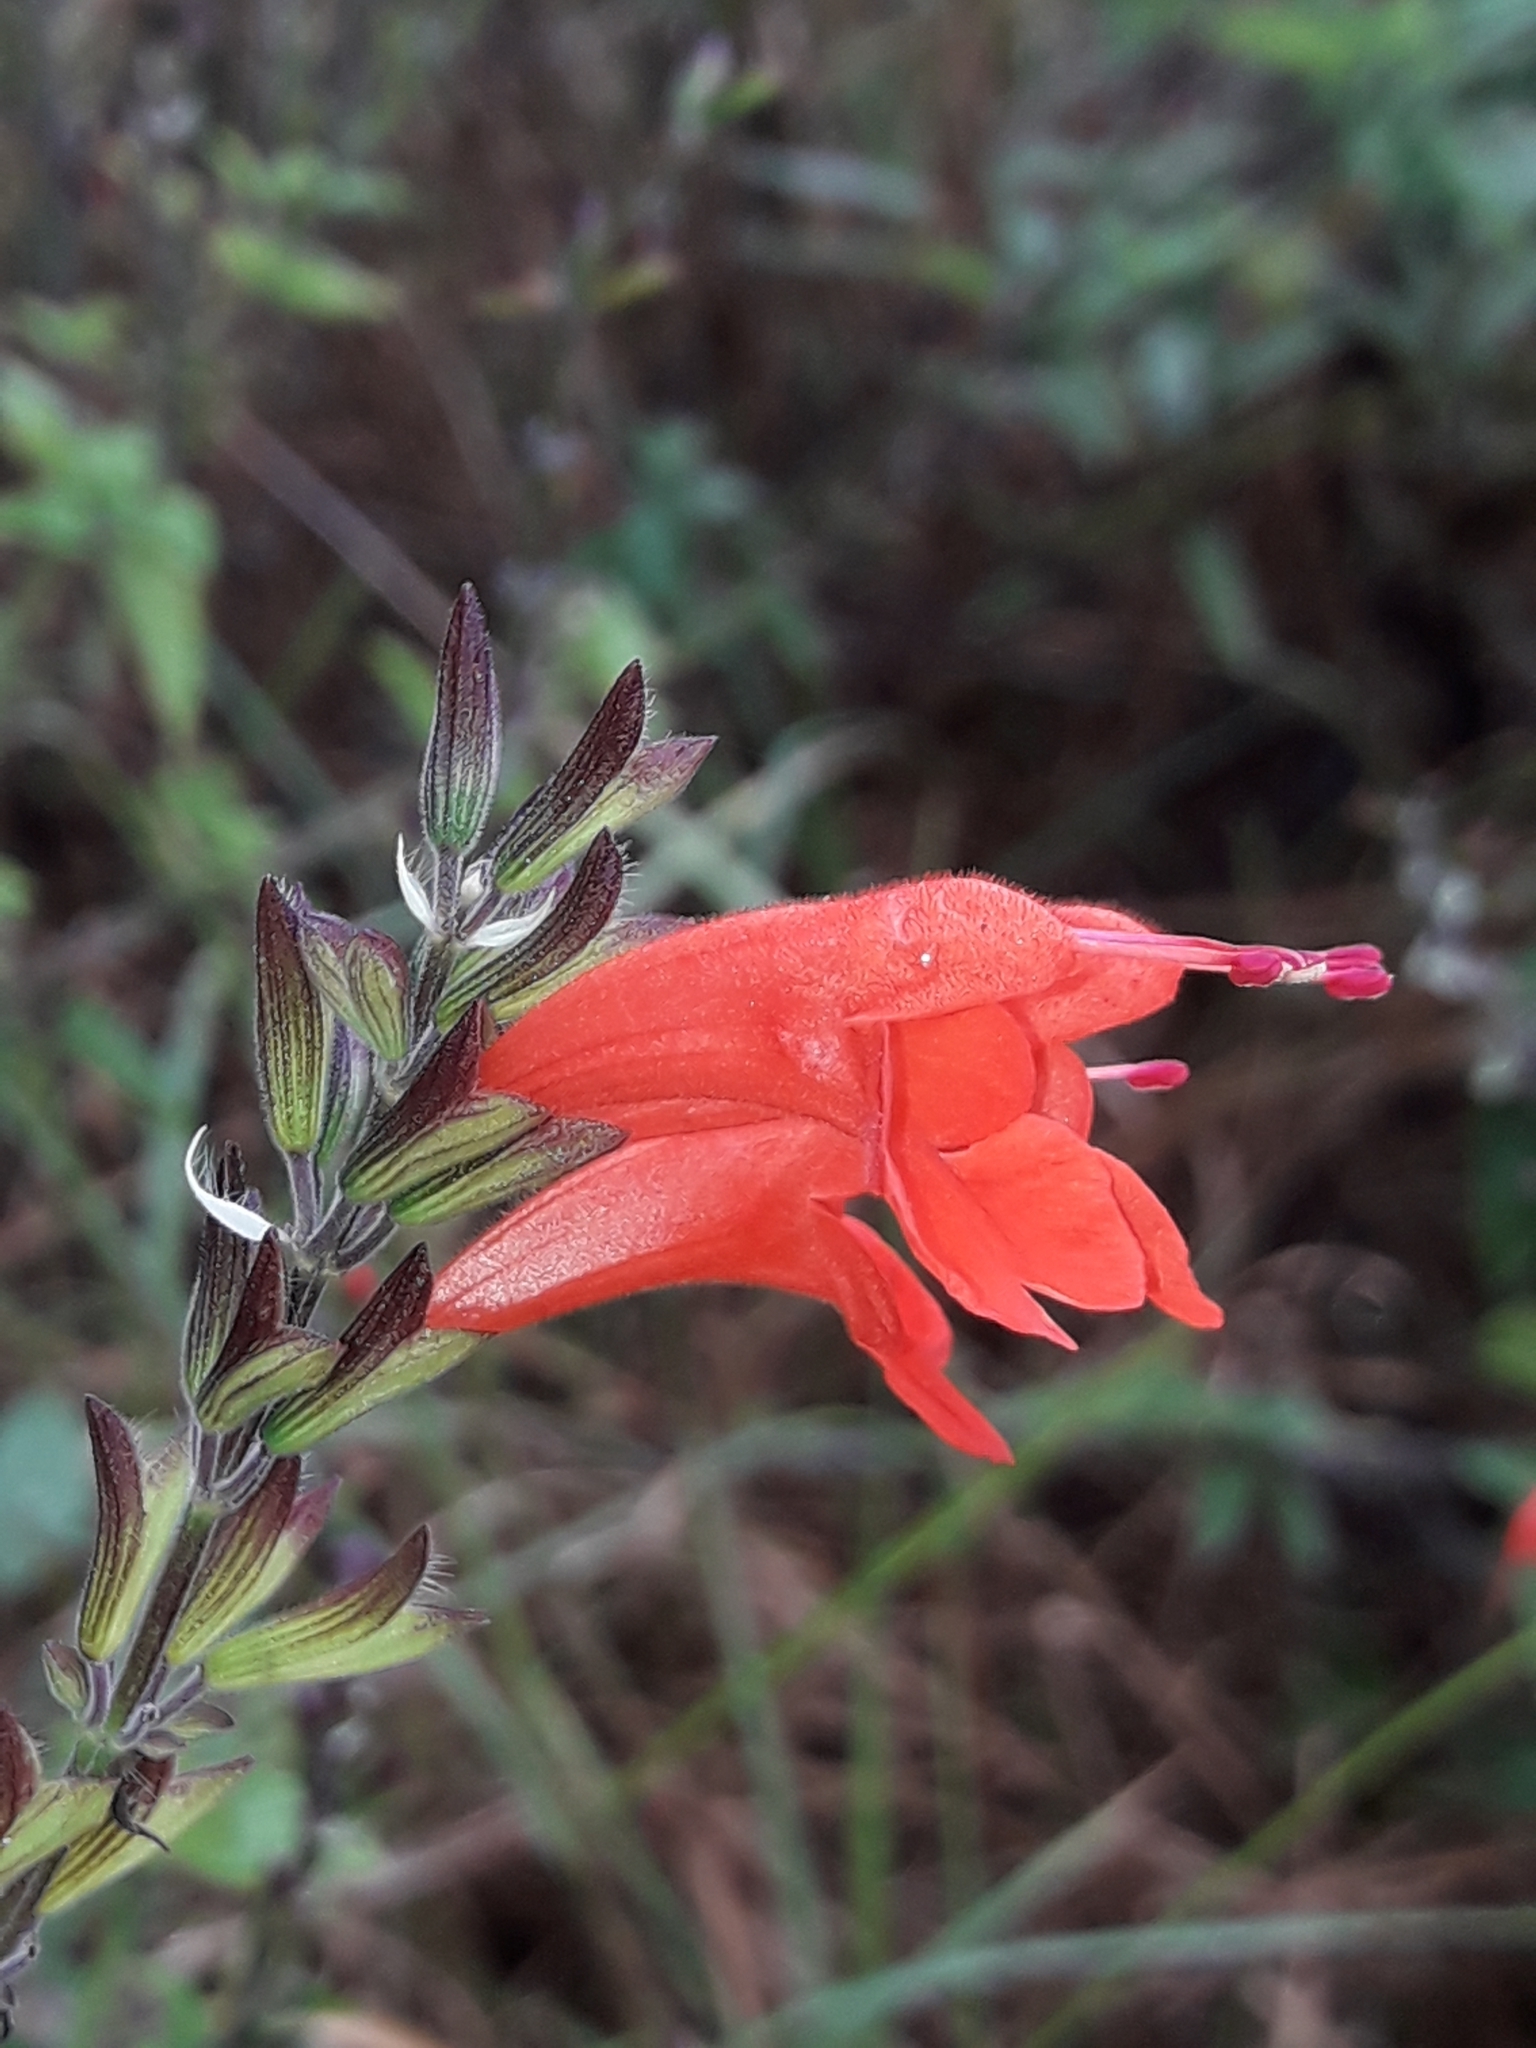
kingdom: Plantae
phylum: Tracheophyta
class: Magnoliopsida
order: Lamiales
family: Lamiaceae
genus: Salvia
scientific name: Salvia coccinea
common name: Blood sage
